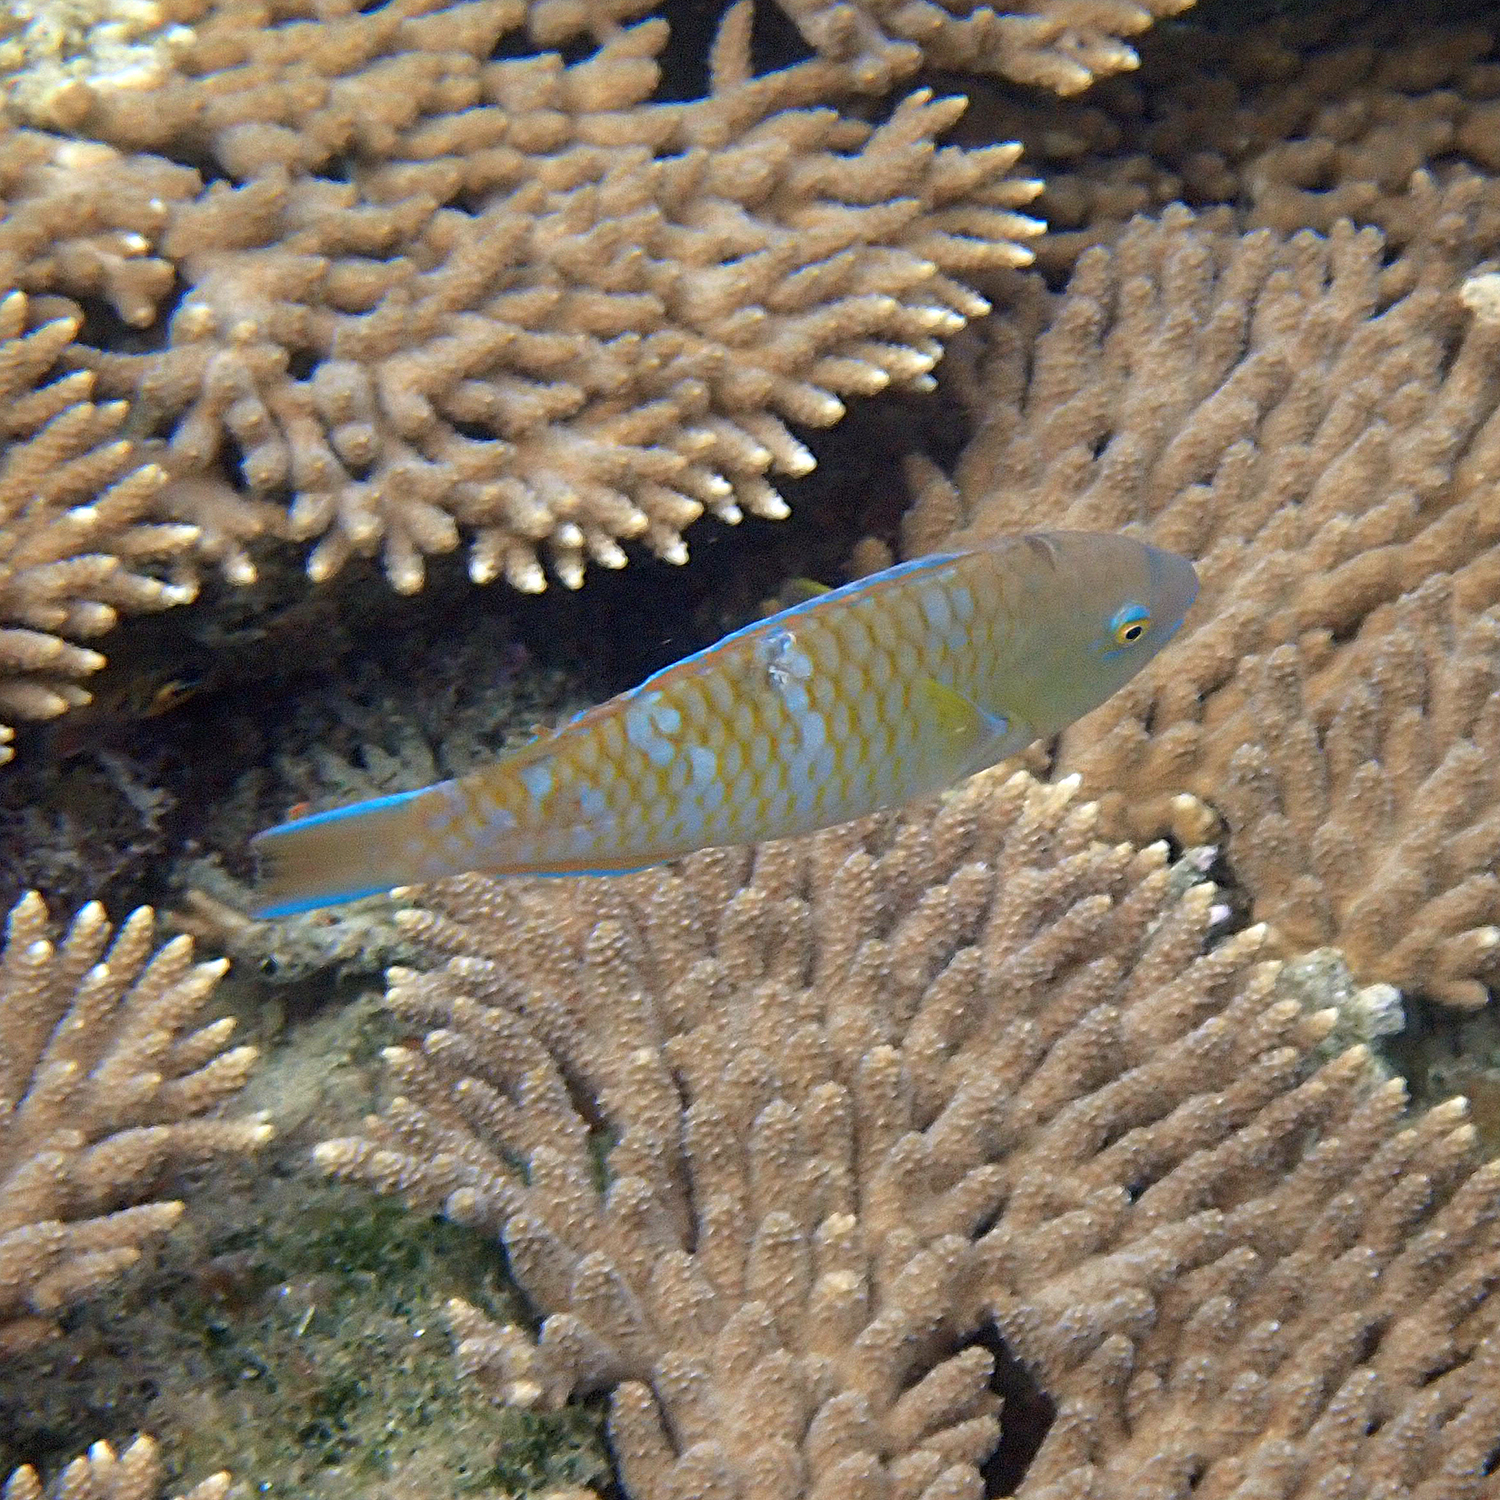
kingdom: Animalia
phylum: Chordata
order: Perciformes
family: Scaridae
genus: Scarus
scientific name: Scarus ghobban
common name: Blue-barred parrotfish
